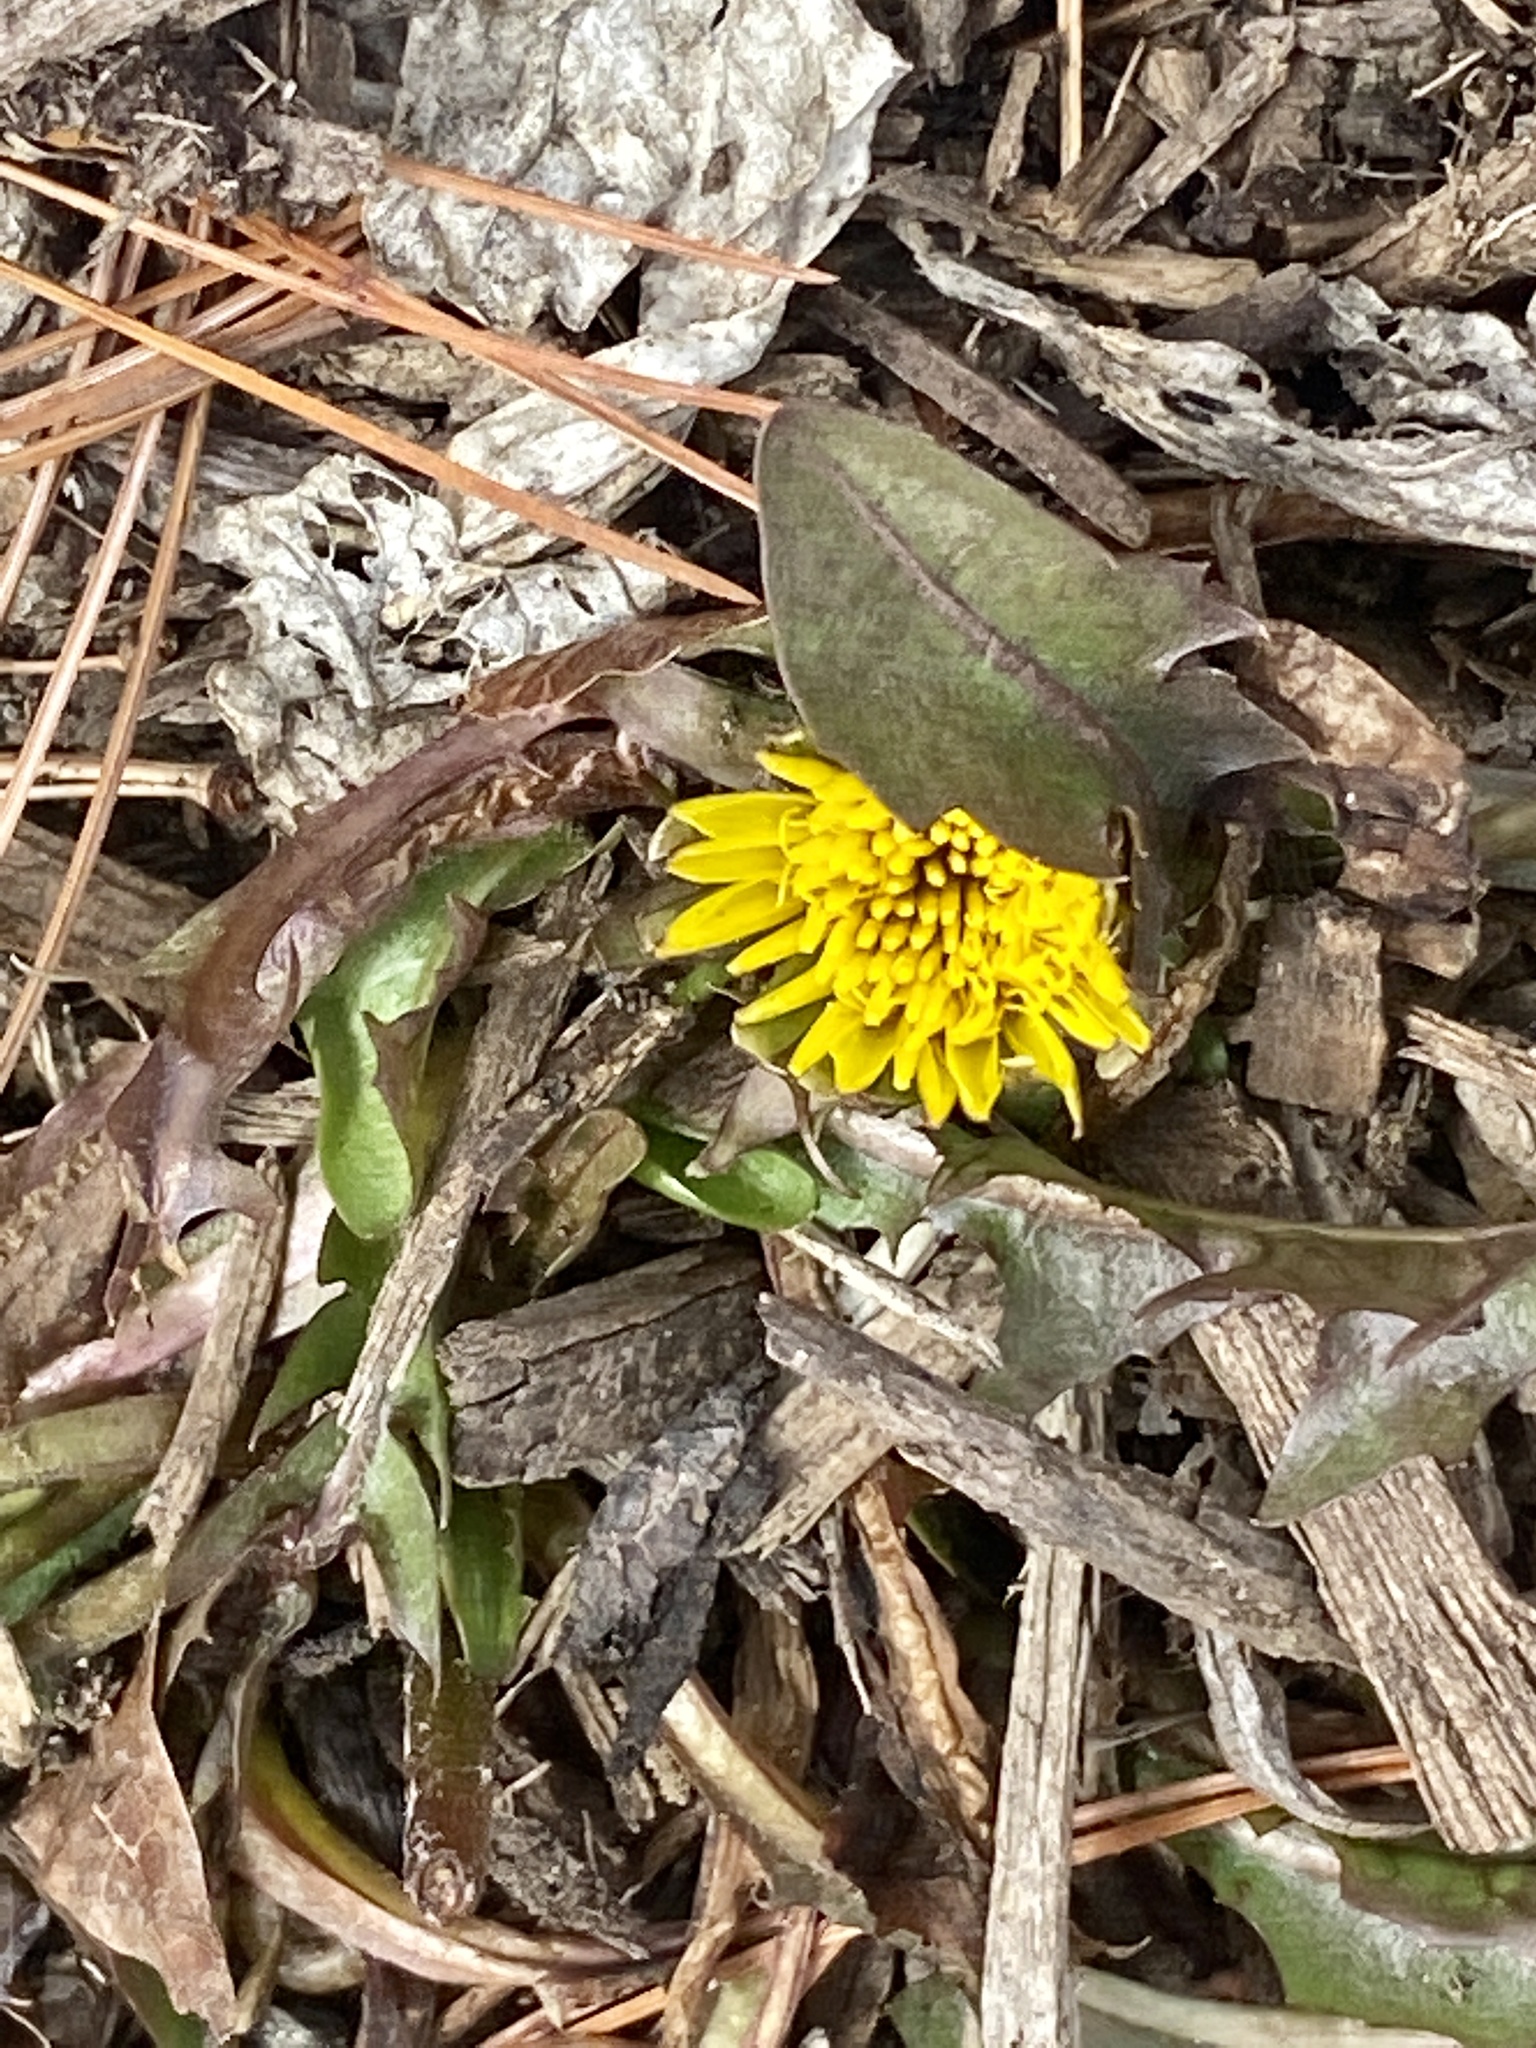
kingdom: Plantae
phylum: Tracheophyta
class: Magnoliopsida
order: Asterales
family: Asteraceae
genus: Taraxacum
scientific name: Taraxacum officinale
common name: Common dandelion
